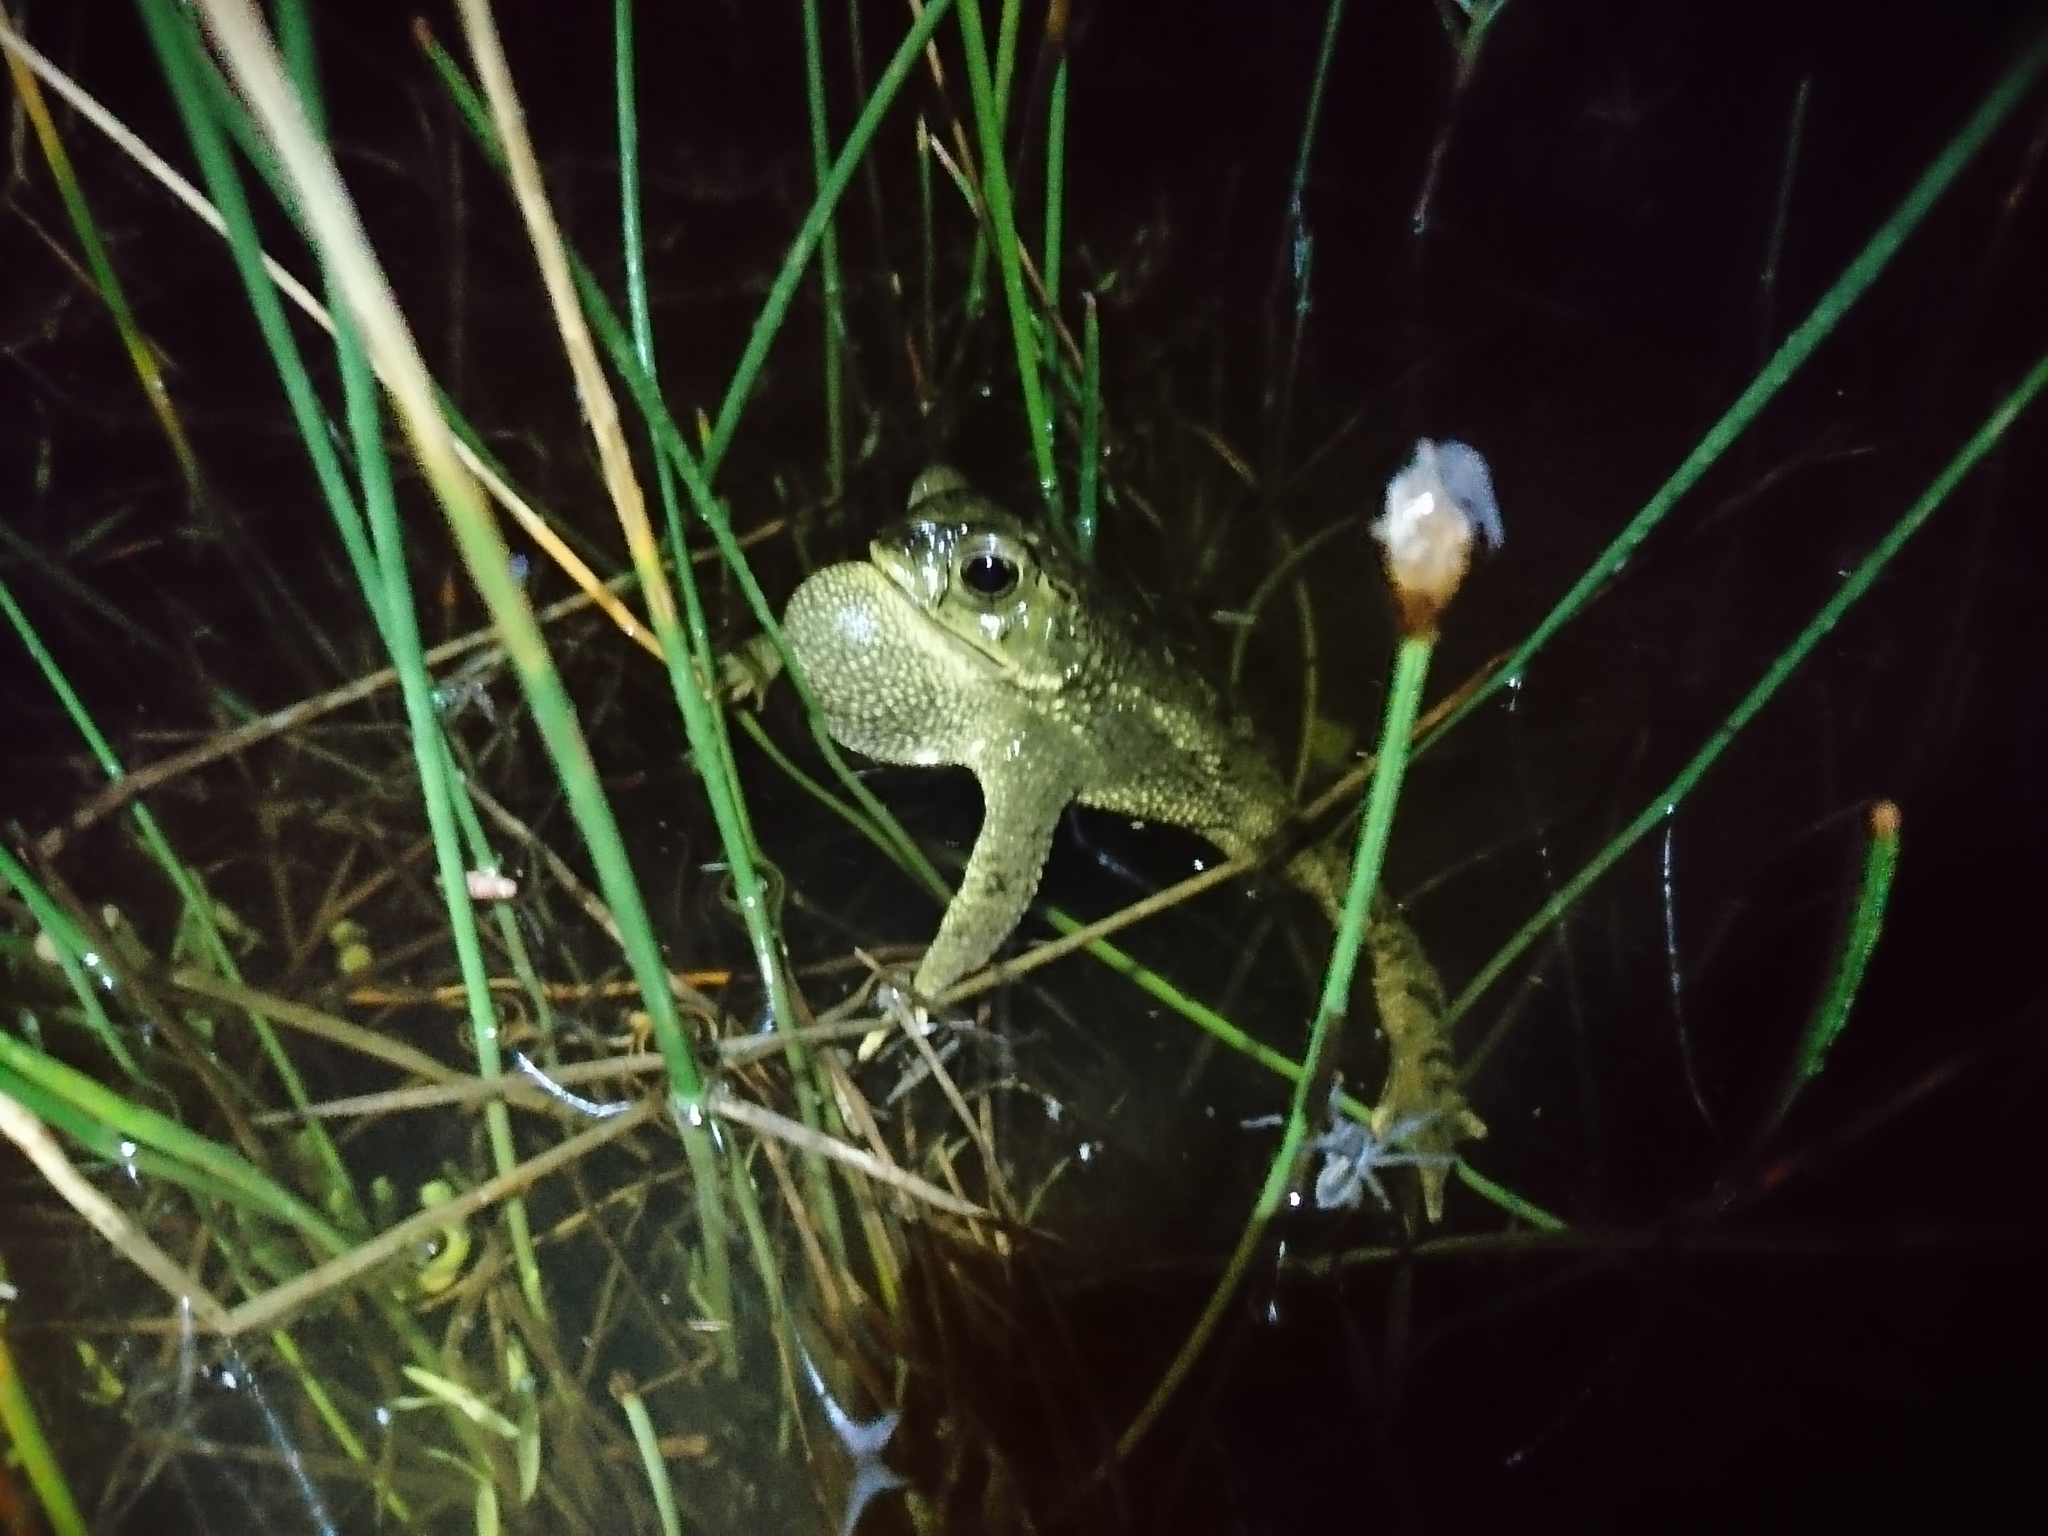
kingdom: Animalia
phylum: Chordata
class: Amphibia
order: Anura
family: Bufonidae
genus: Rhinella
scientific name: Rhinella dorbignyi
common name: D´orbigny’s toad
